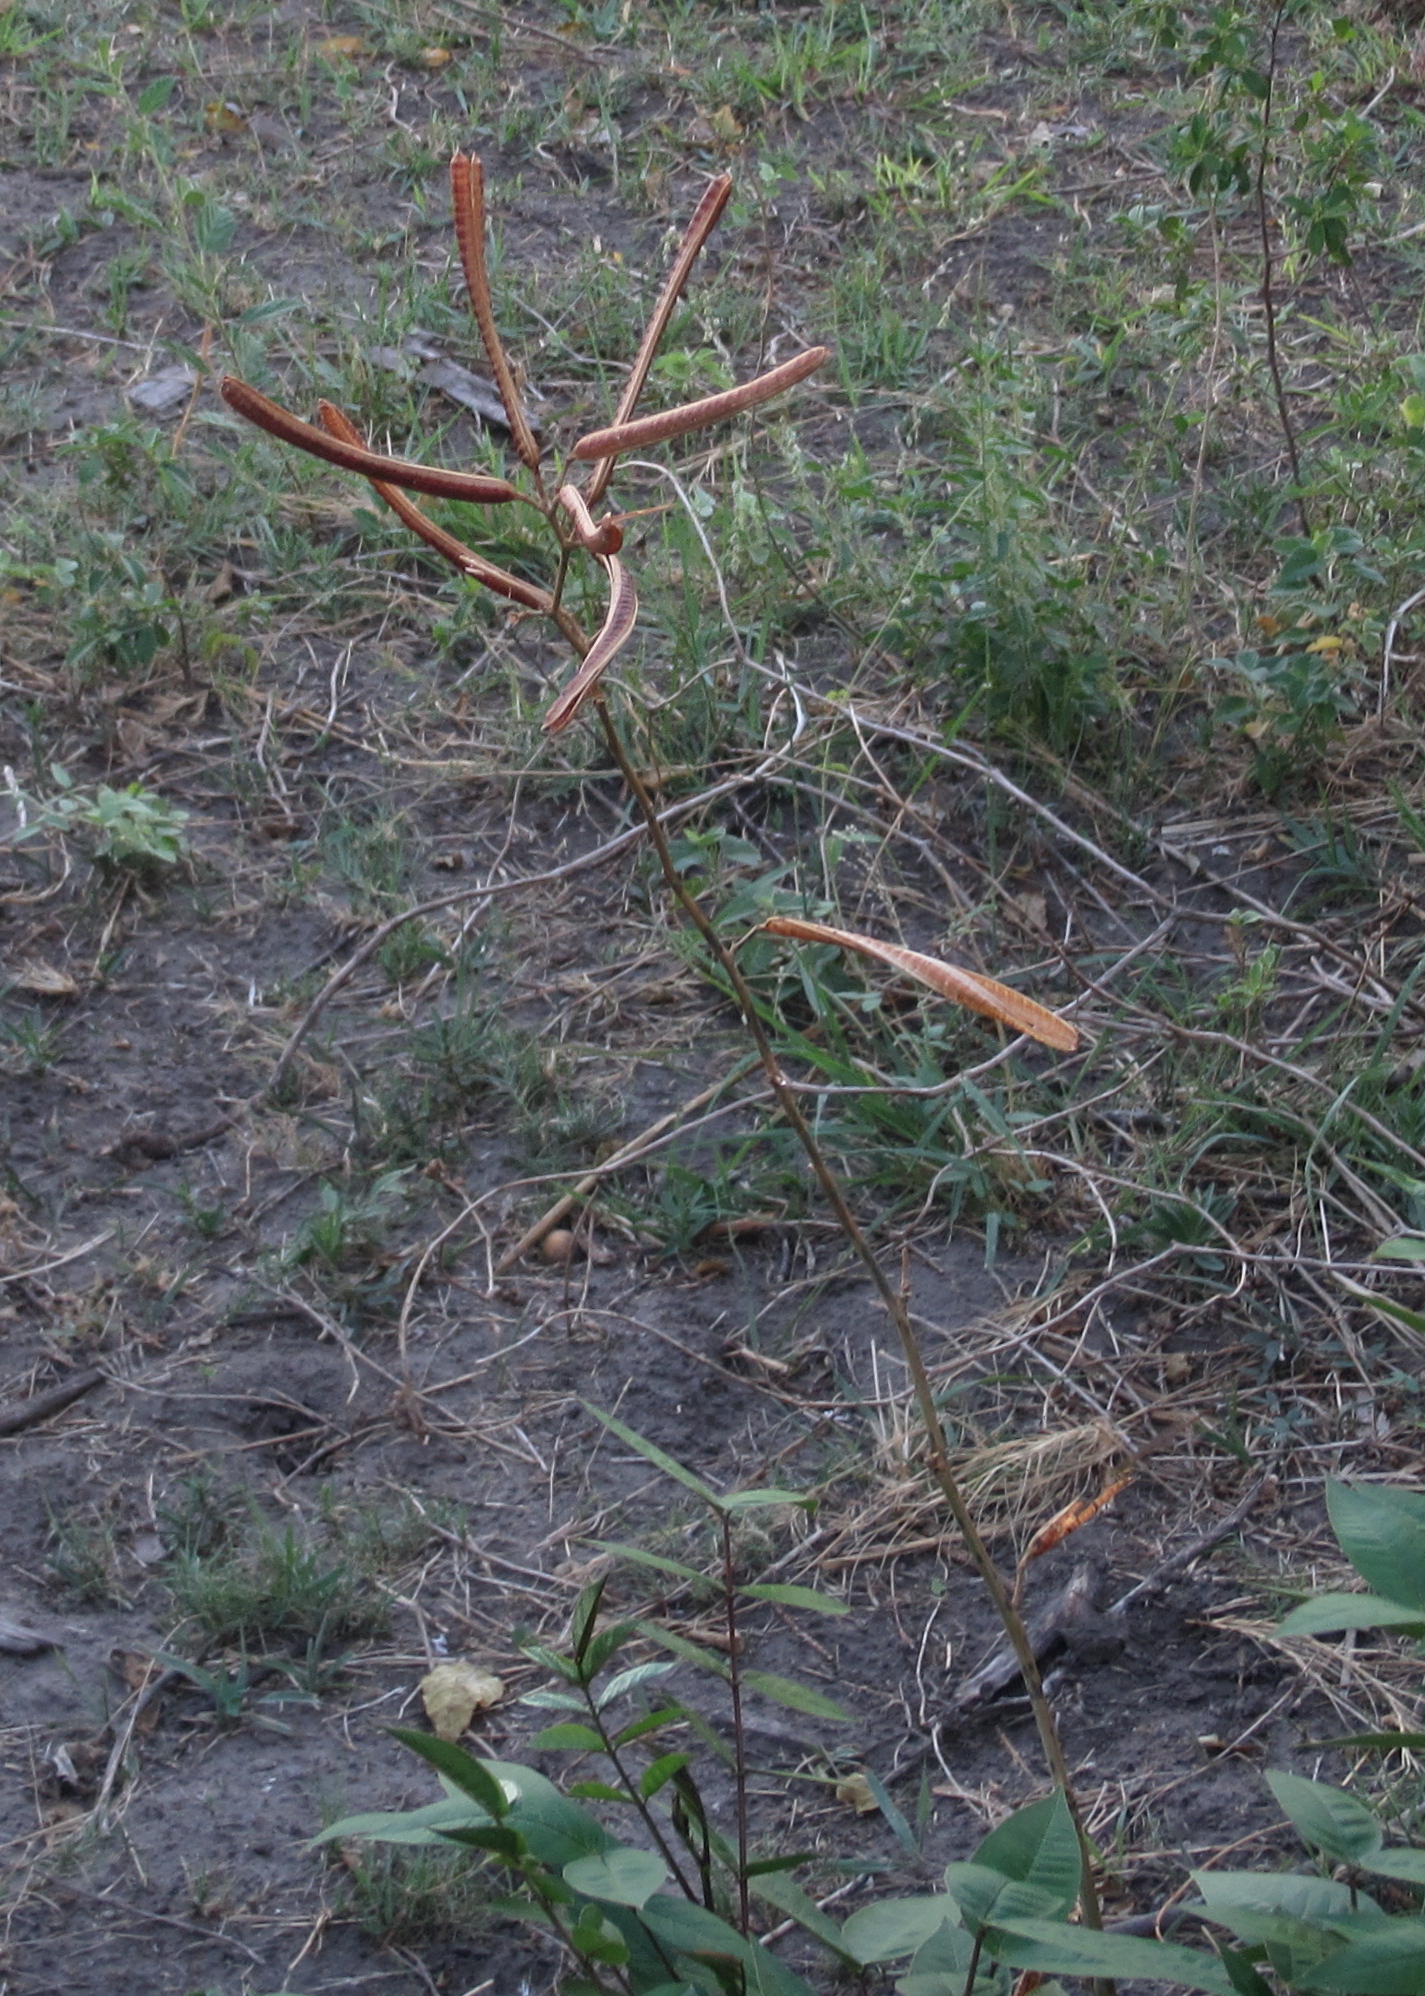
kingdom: Plantae
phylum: Tracheophyta
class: Magnoliopsida
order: Fabales
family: Fabaceae
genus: Senna
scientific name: Senna occidentalis
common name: Septicweed
